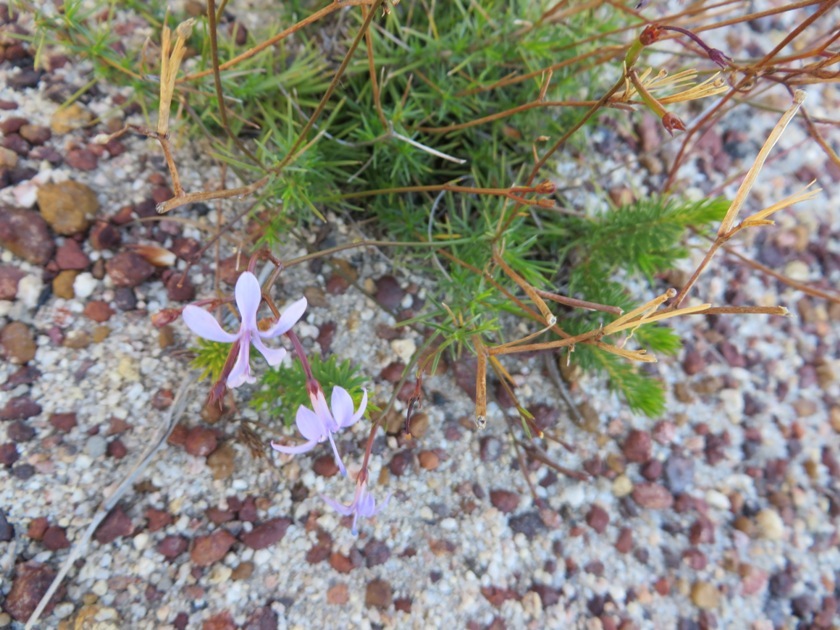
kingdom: Plantae
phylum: Tracheophyta
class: Magnoliopsida
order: Asterales
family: Campanulaceae
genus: Prismatocarpus
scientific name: Prismatocarpus diffusus
